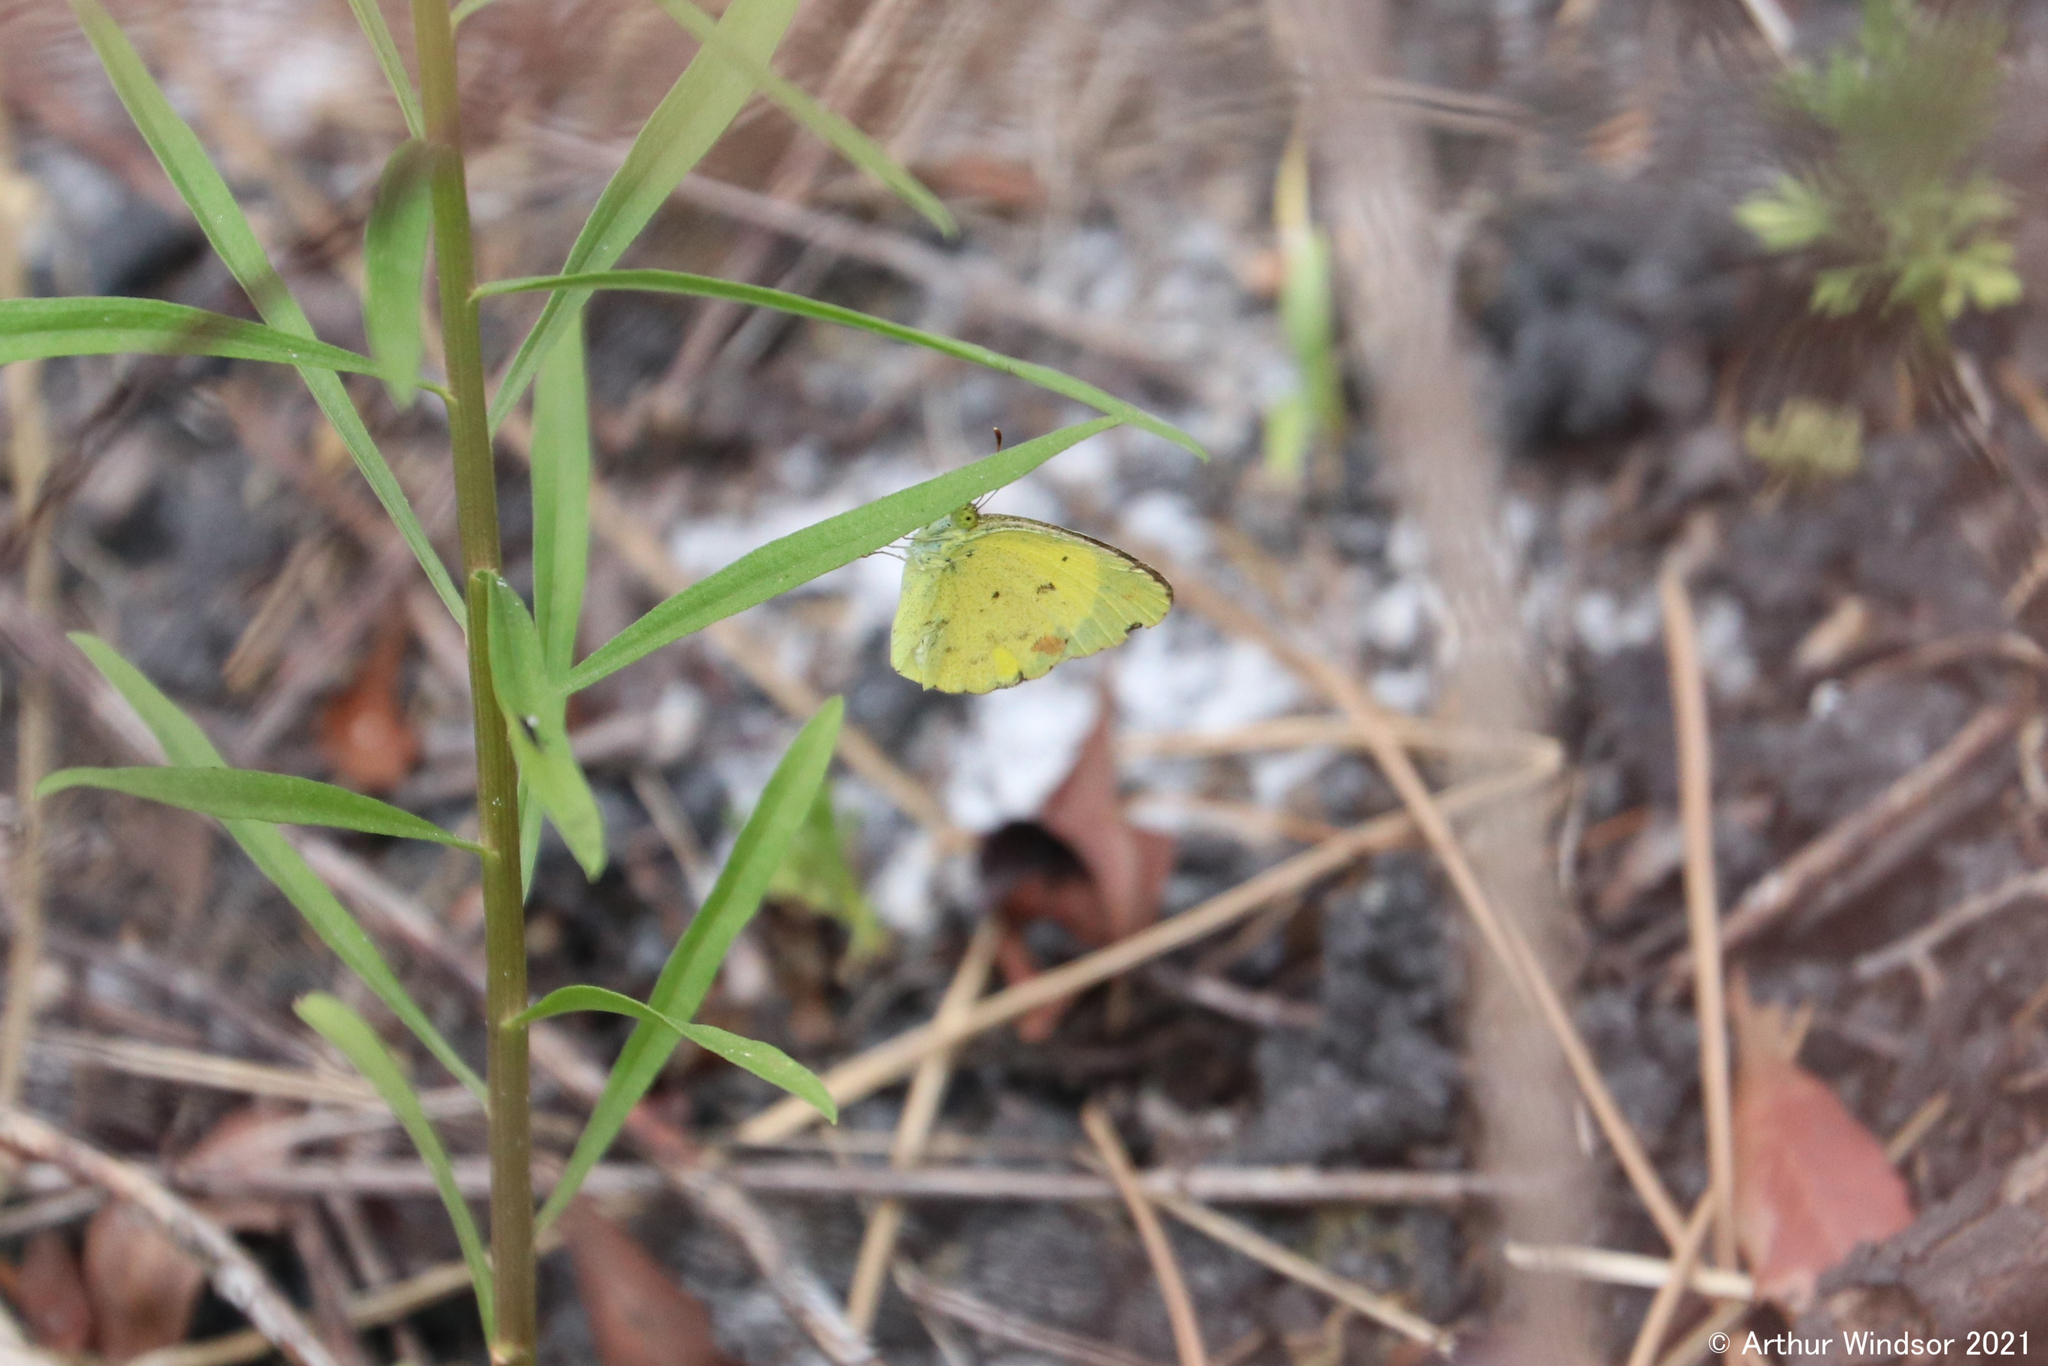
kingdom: Animalia
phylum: Arthropoda
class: Insecta
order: Lepidoptera
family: Pieridae
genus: Pyrisitia
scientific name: Pyrisitia lisa
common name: Little yellow
